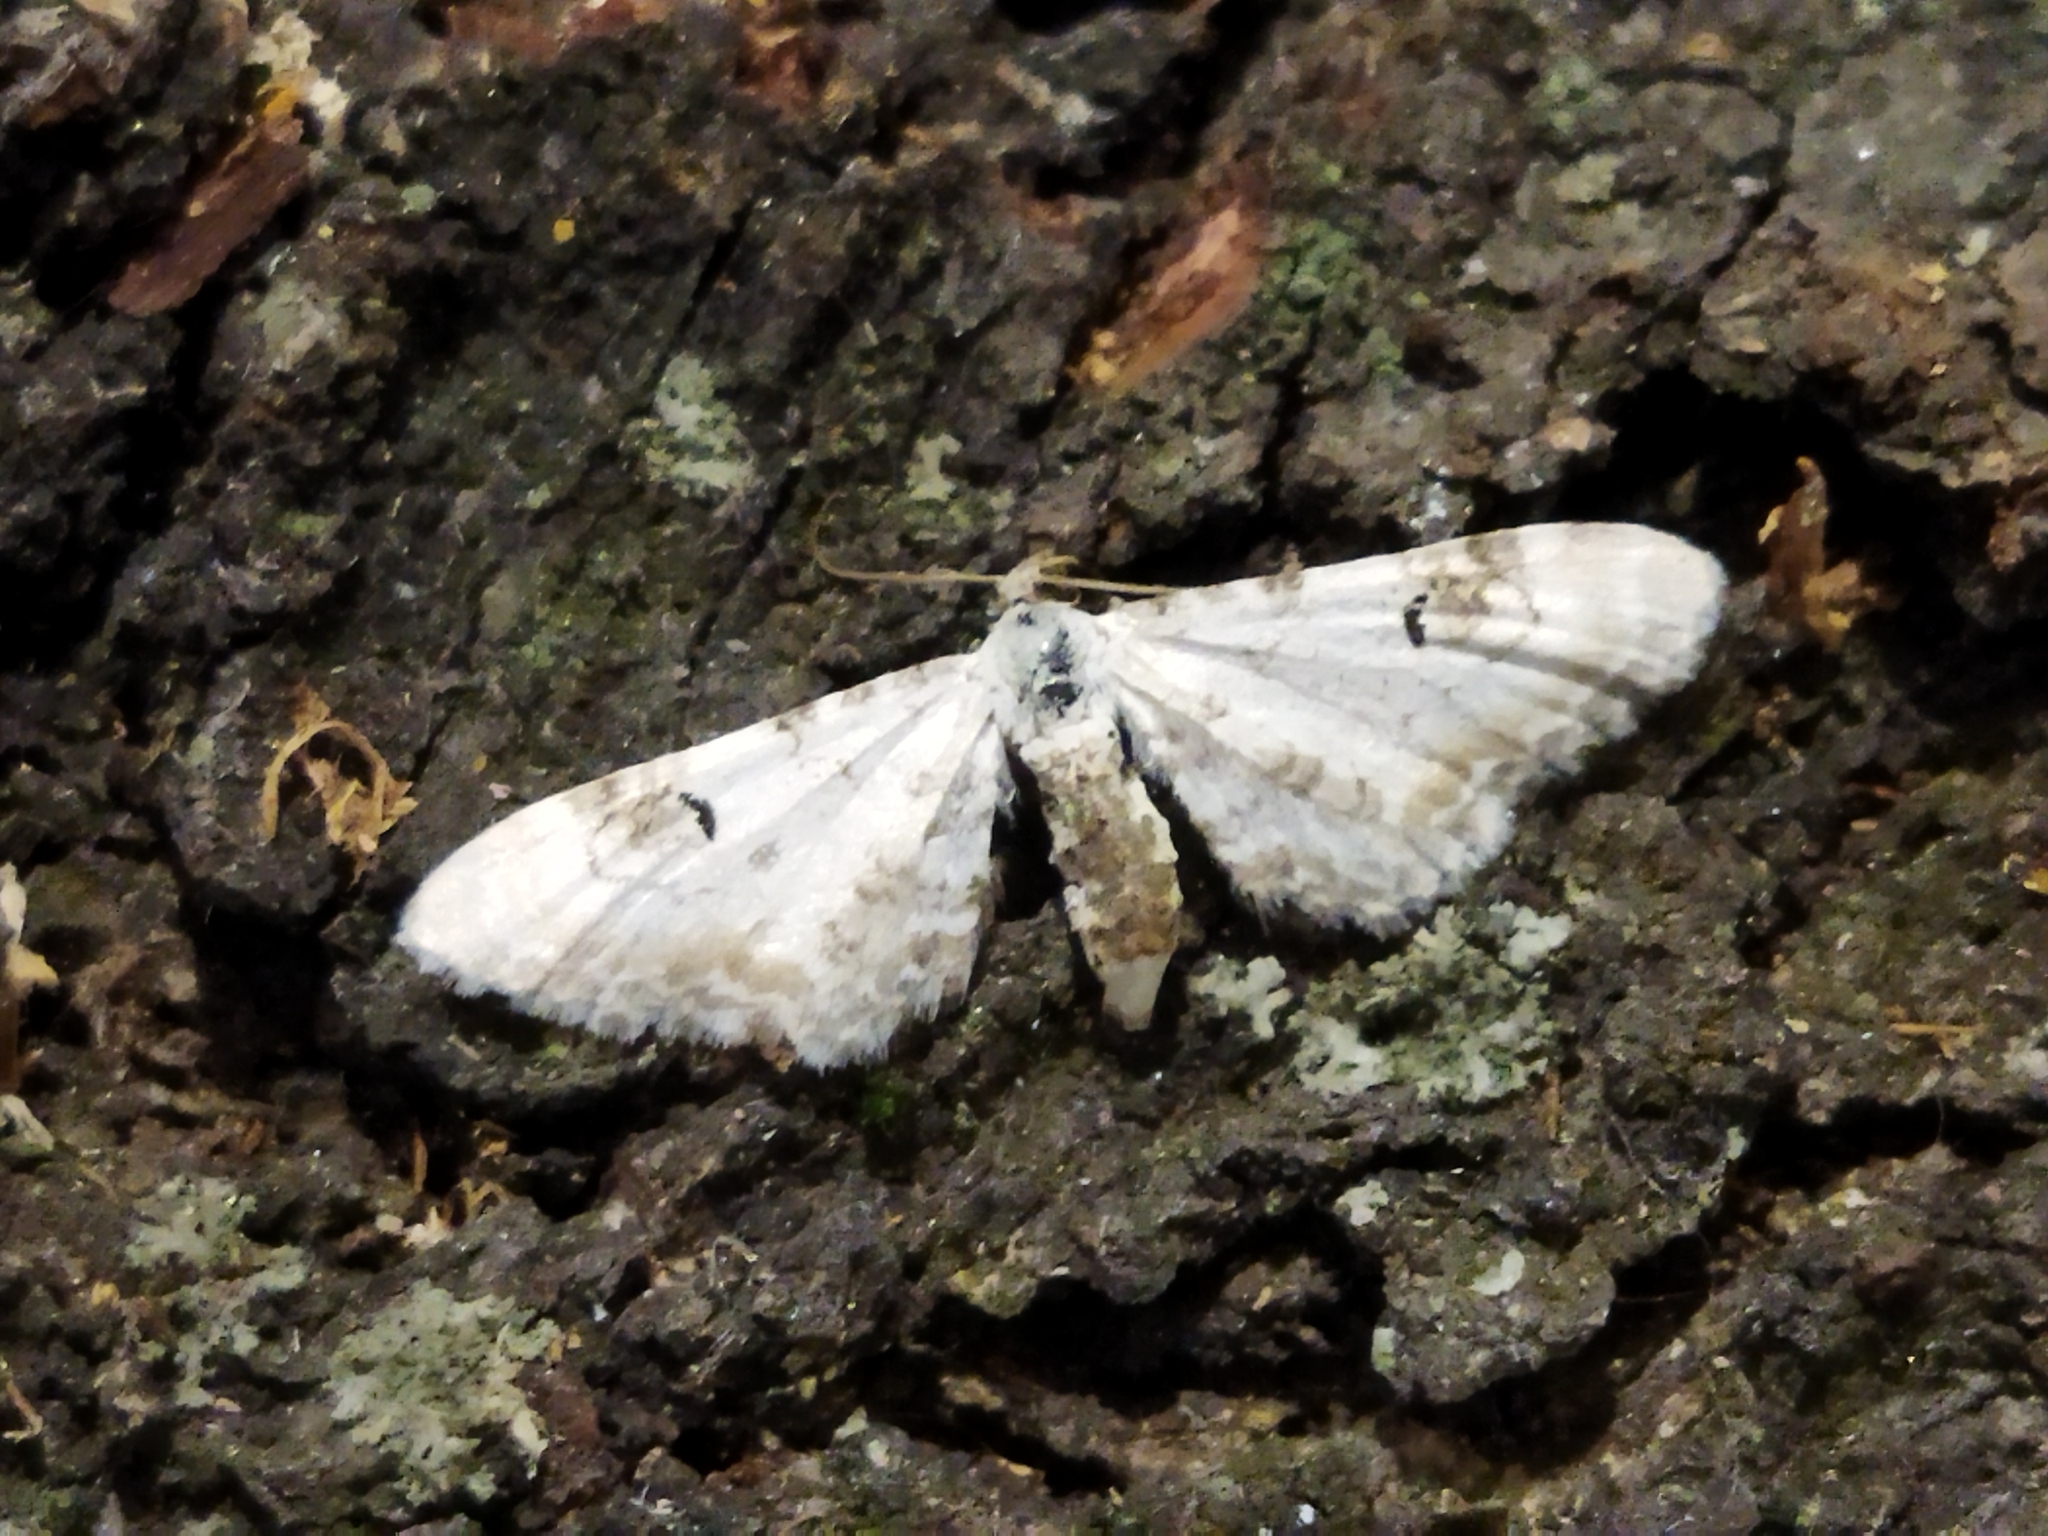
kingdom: Animalia
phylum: Arthropoda
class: Insecta
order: Lepidoptera
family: Geometridae
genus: Eupithecia
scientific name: Eupithecia centaureata
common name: Lime-speck pug
